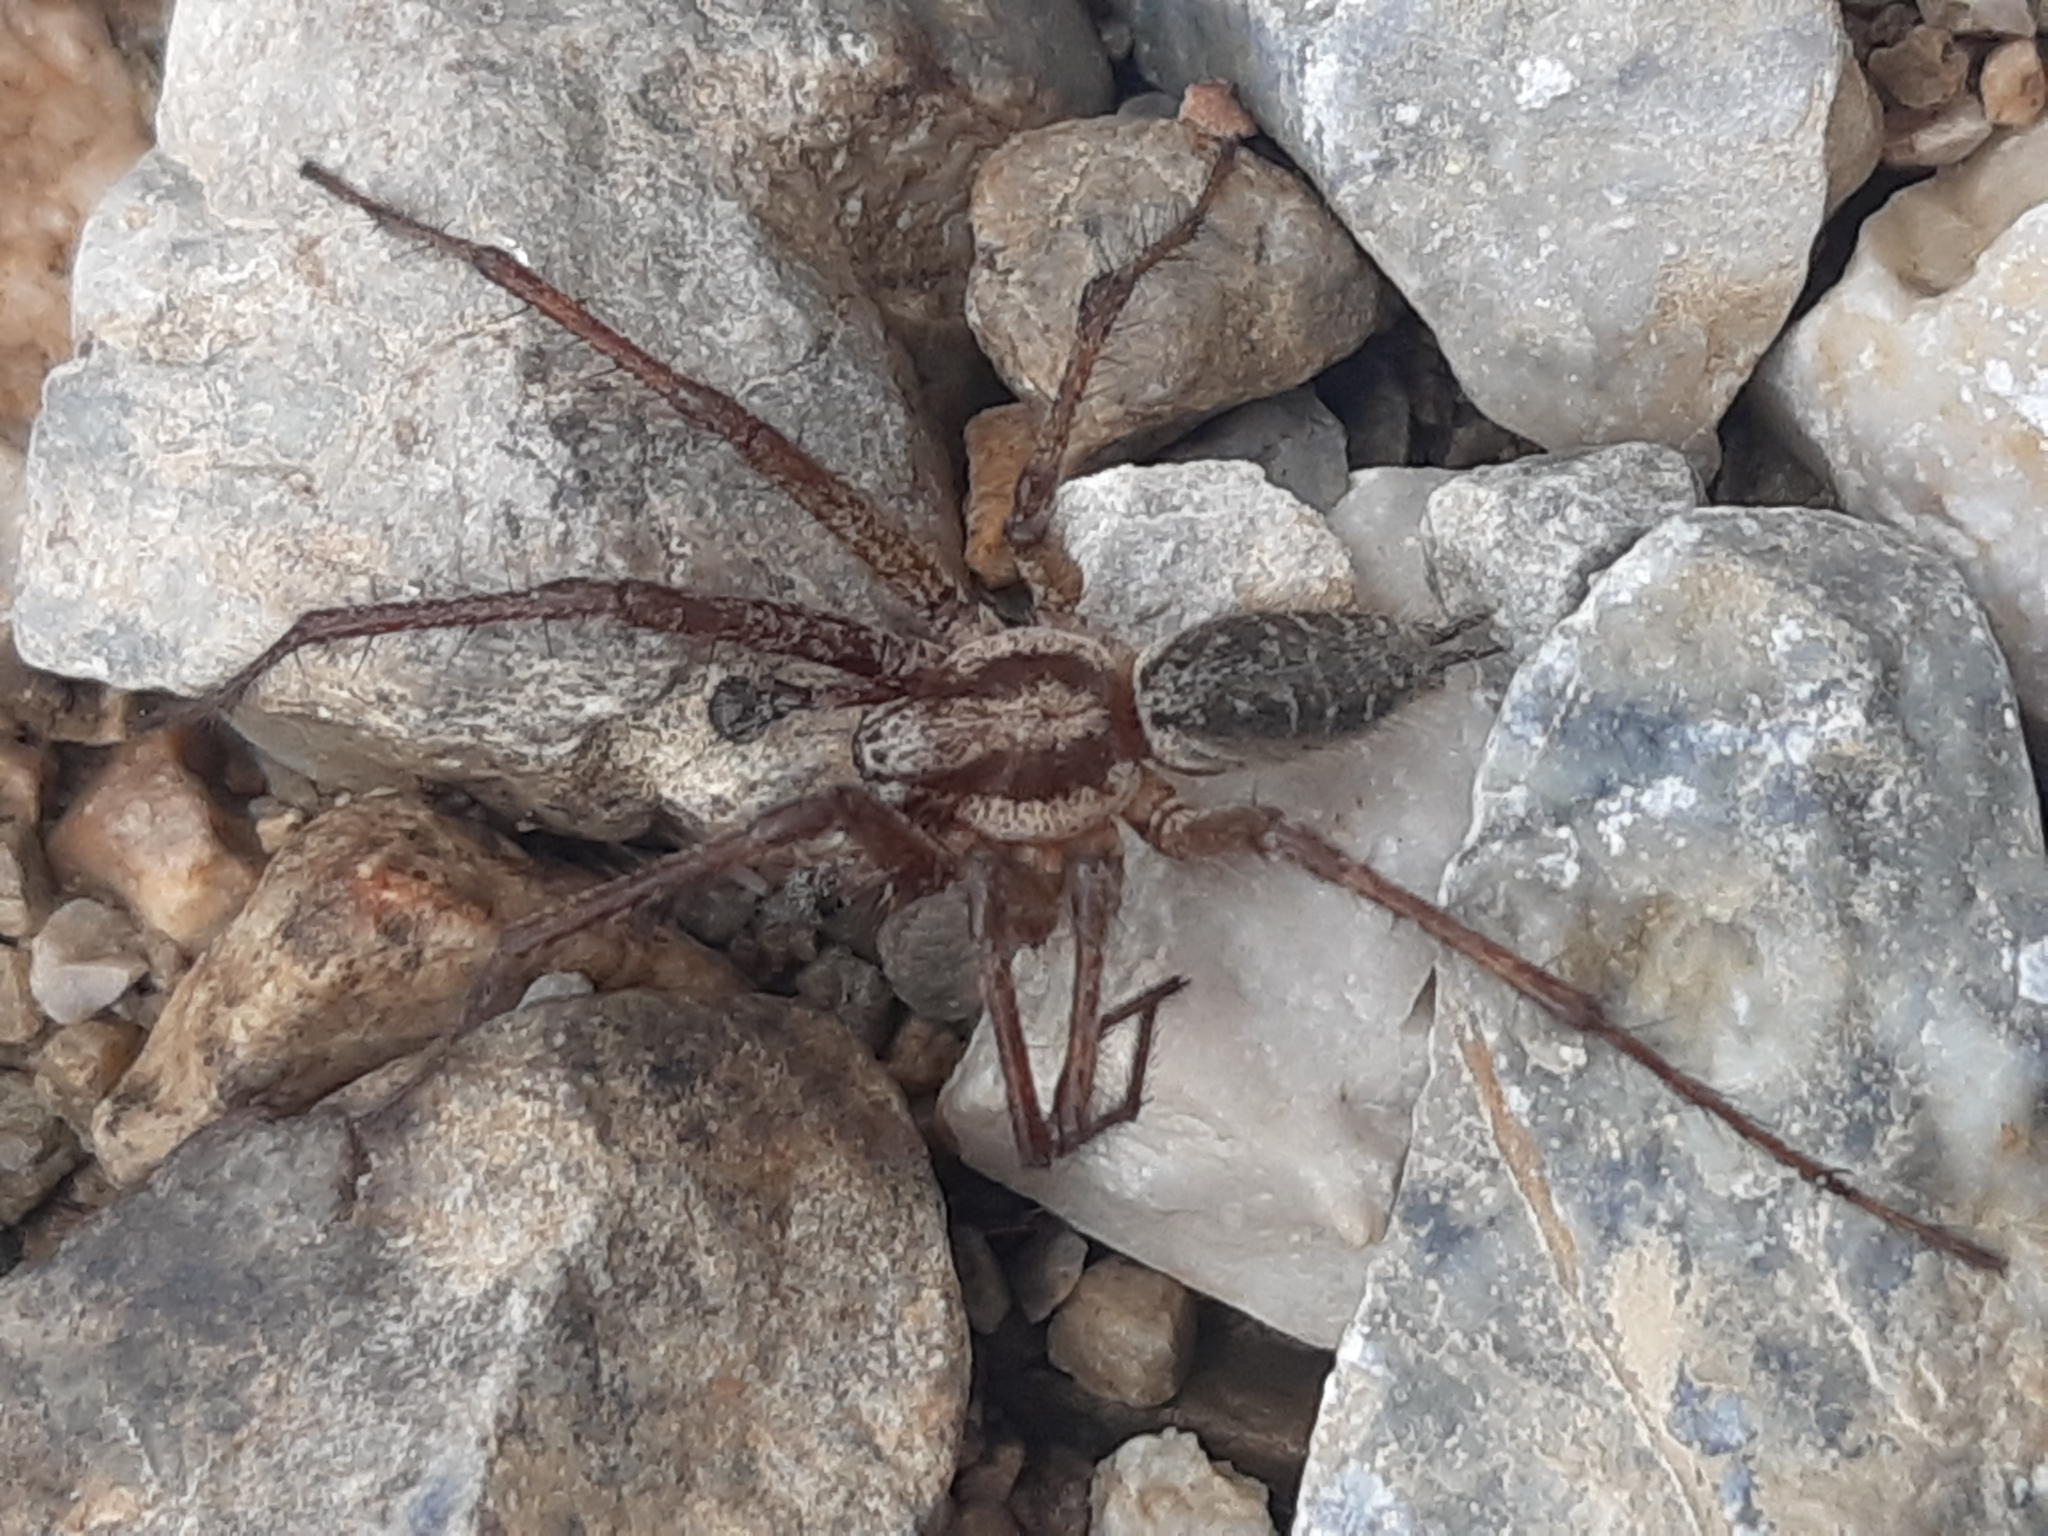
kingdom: Animalia
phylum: Arthropoda
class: Arachnida
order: Araneae
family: Agelenidae
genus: Agelena
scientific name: Agelena labyrinthica
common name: Labyrinth spider
